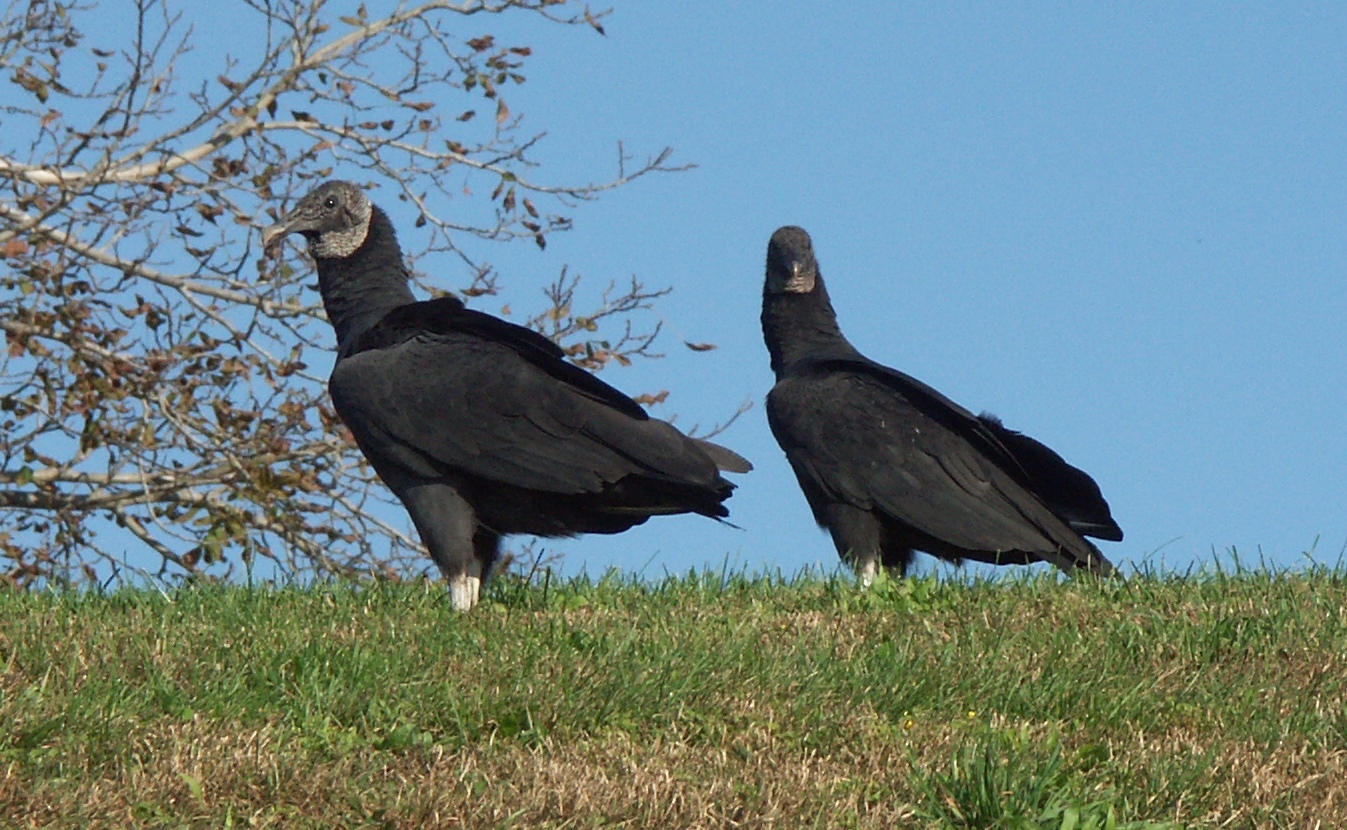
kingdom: Animalia
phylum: Chordata
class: Aves
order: Accipitriformes
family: Cathartidae
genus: Coragyps
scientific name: Coragyps atratus
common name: Black vulture
